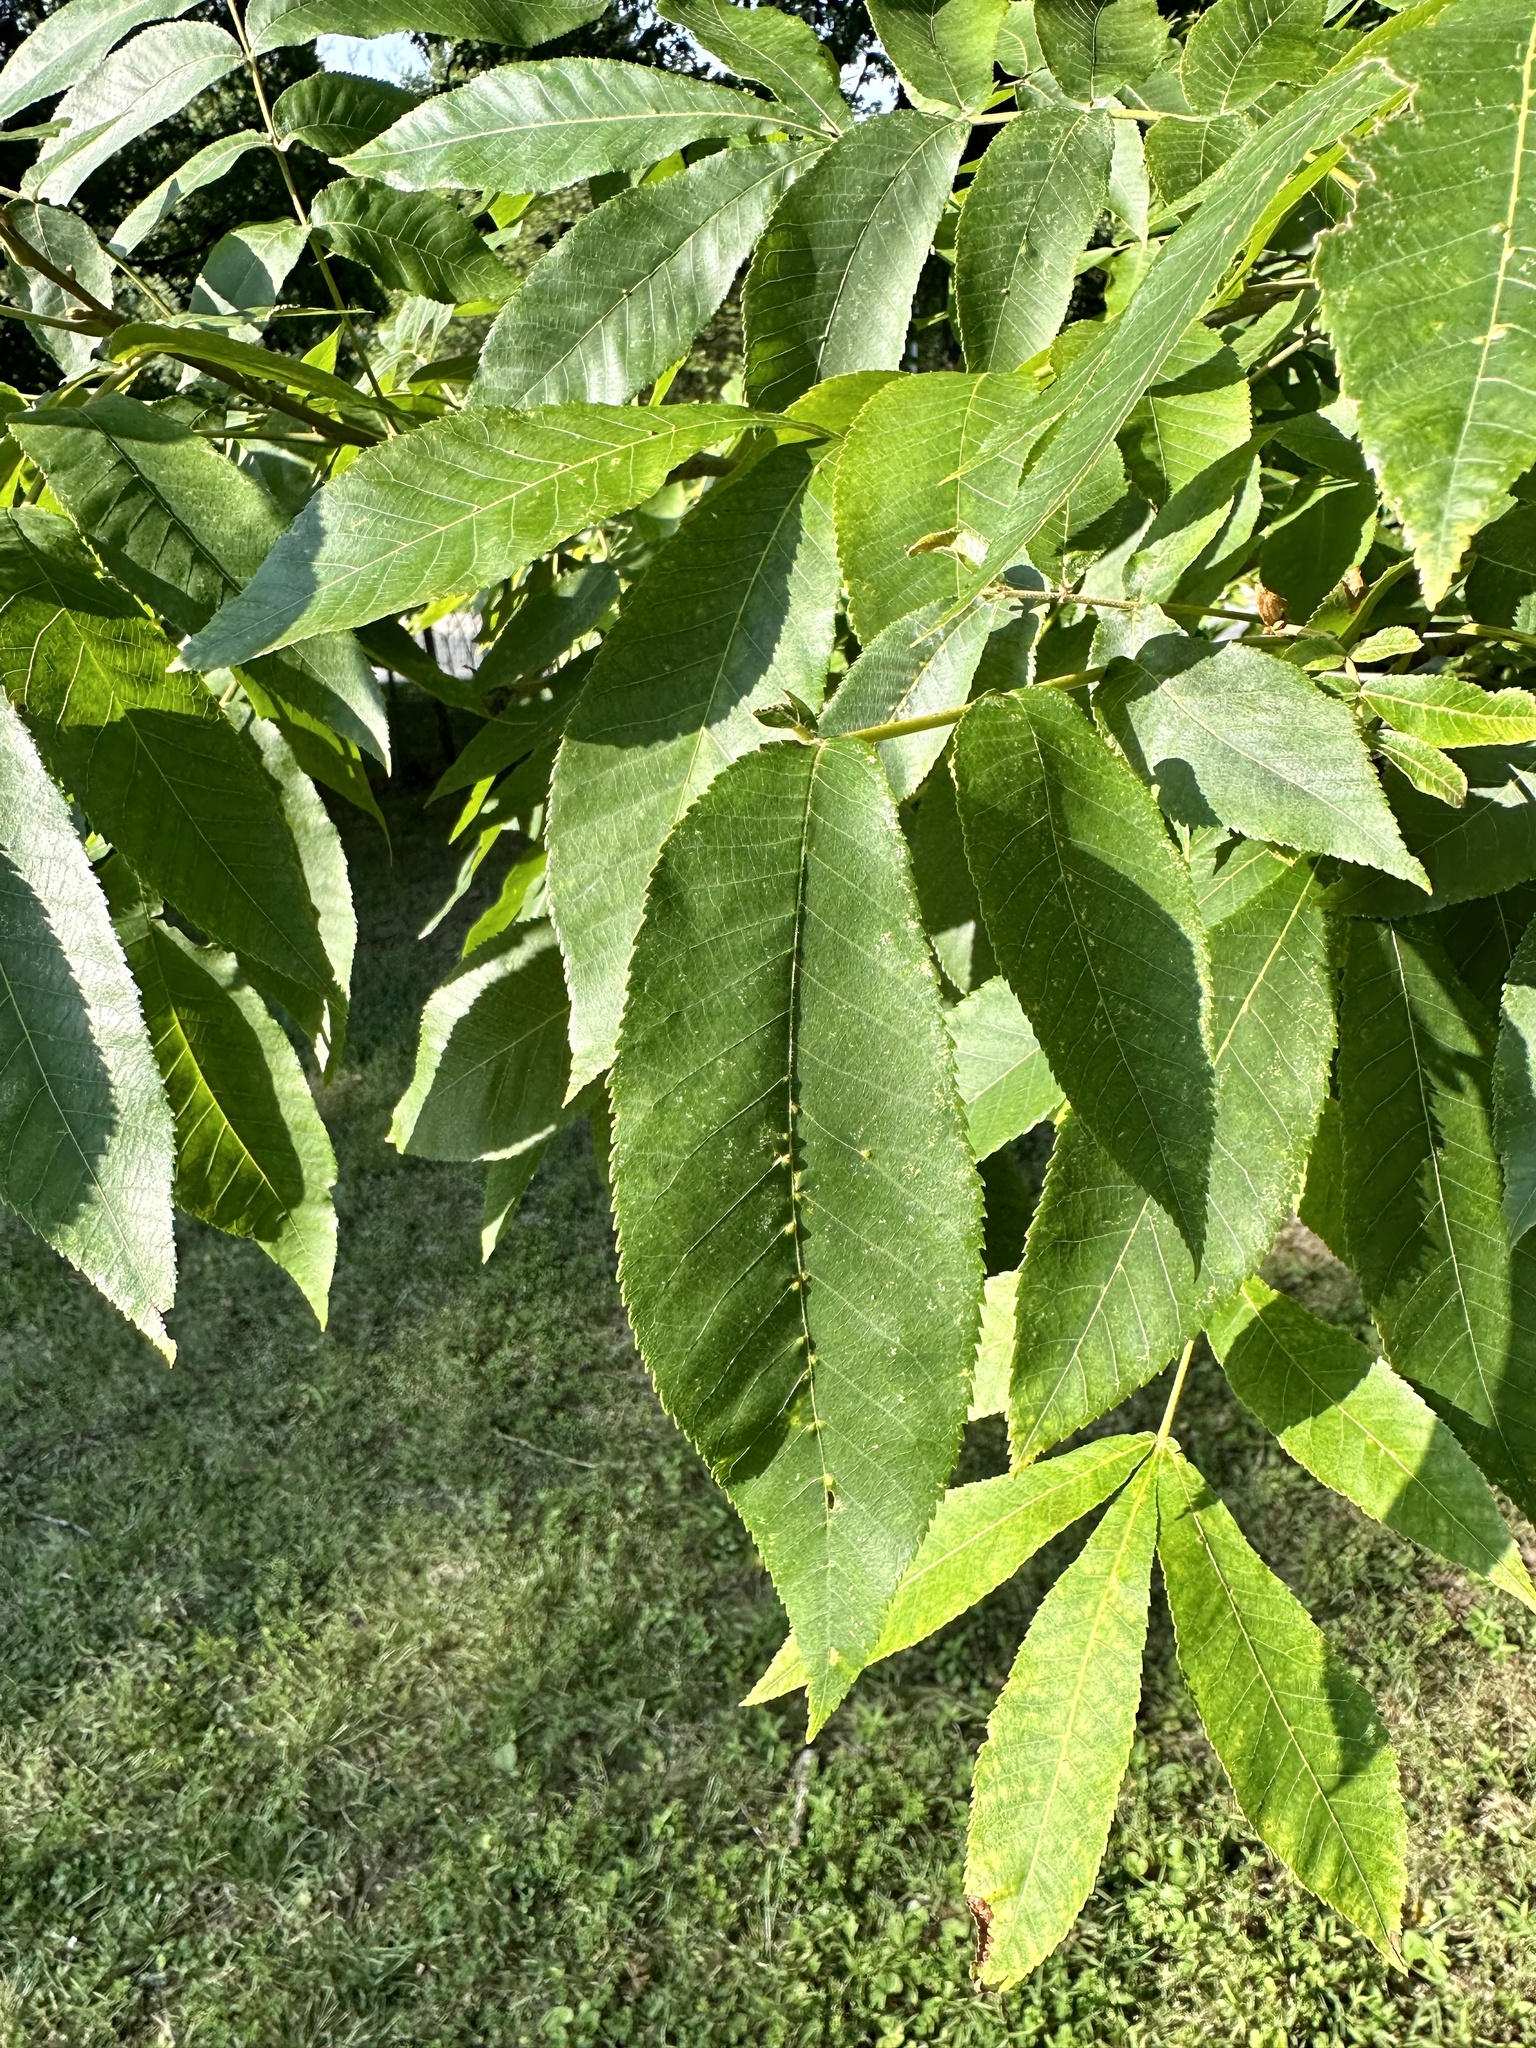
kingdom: Animalia
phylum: Arthropoda
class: Arachnida
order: Trombidiformes
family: Eriophyidae
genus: Aceria
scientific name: Aceria
